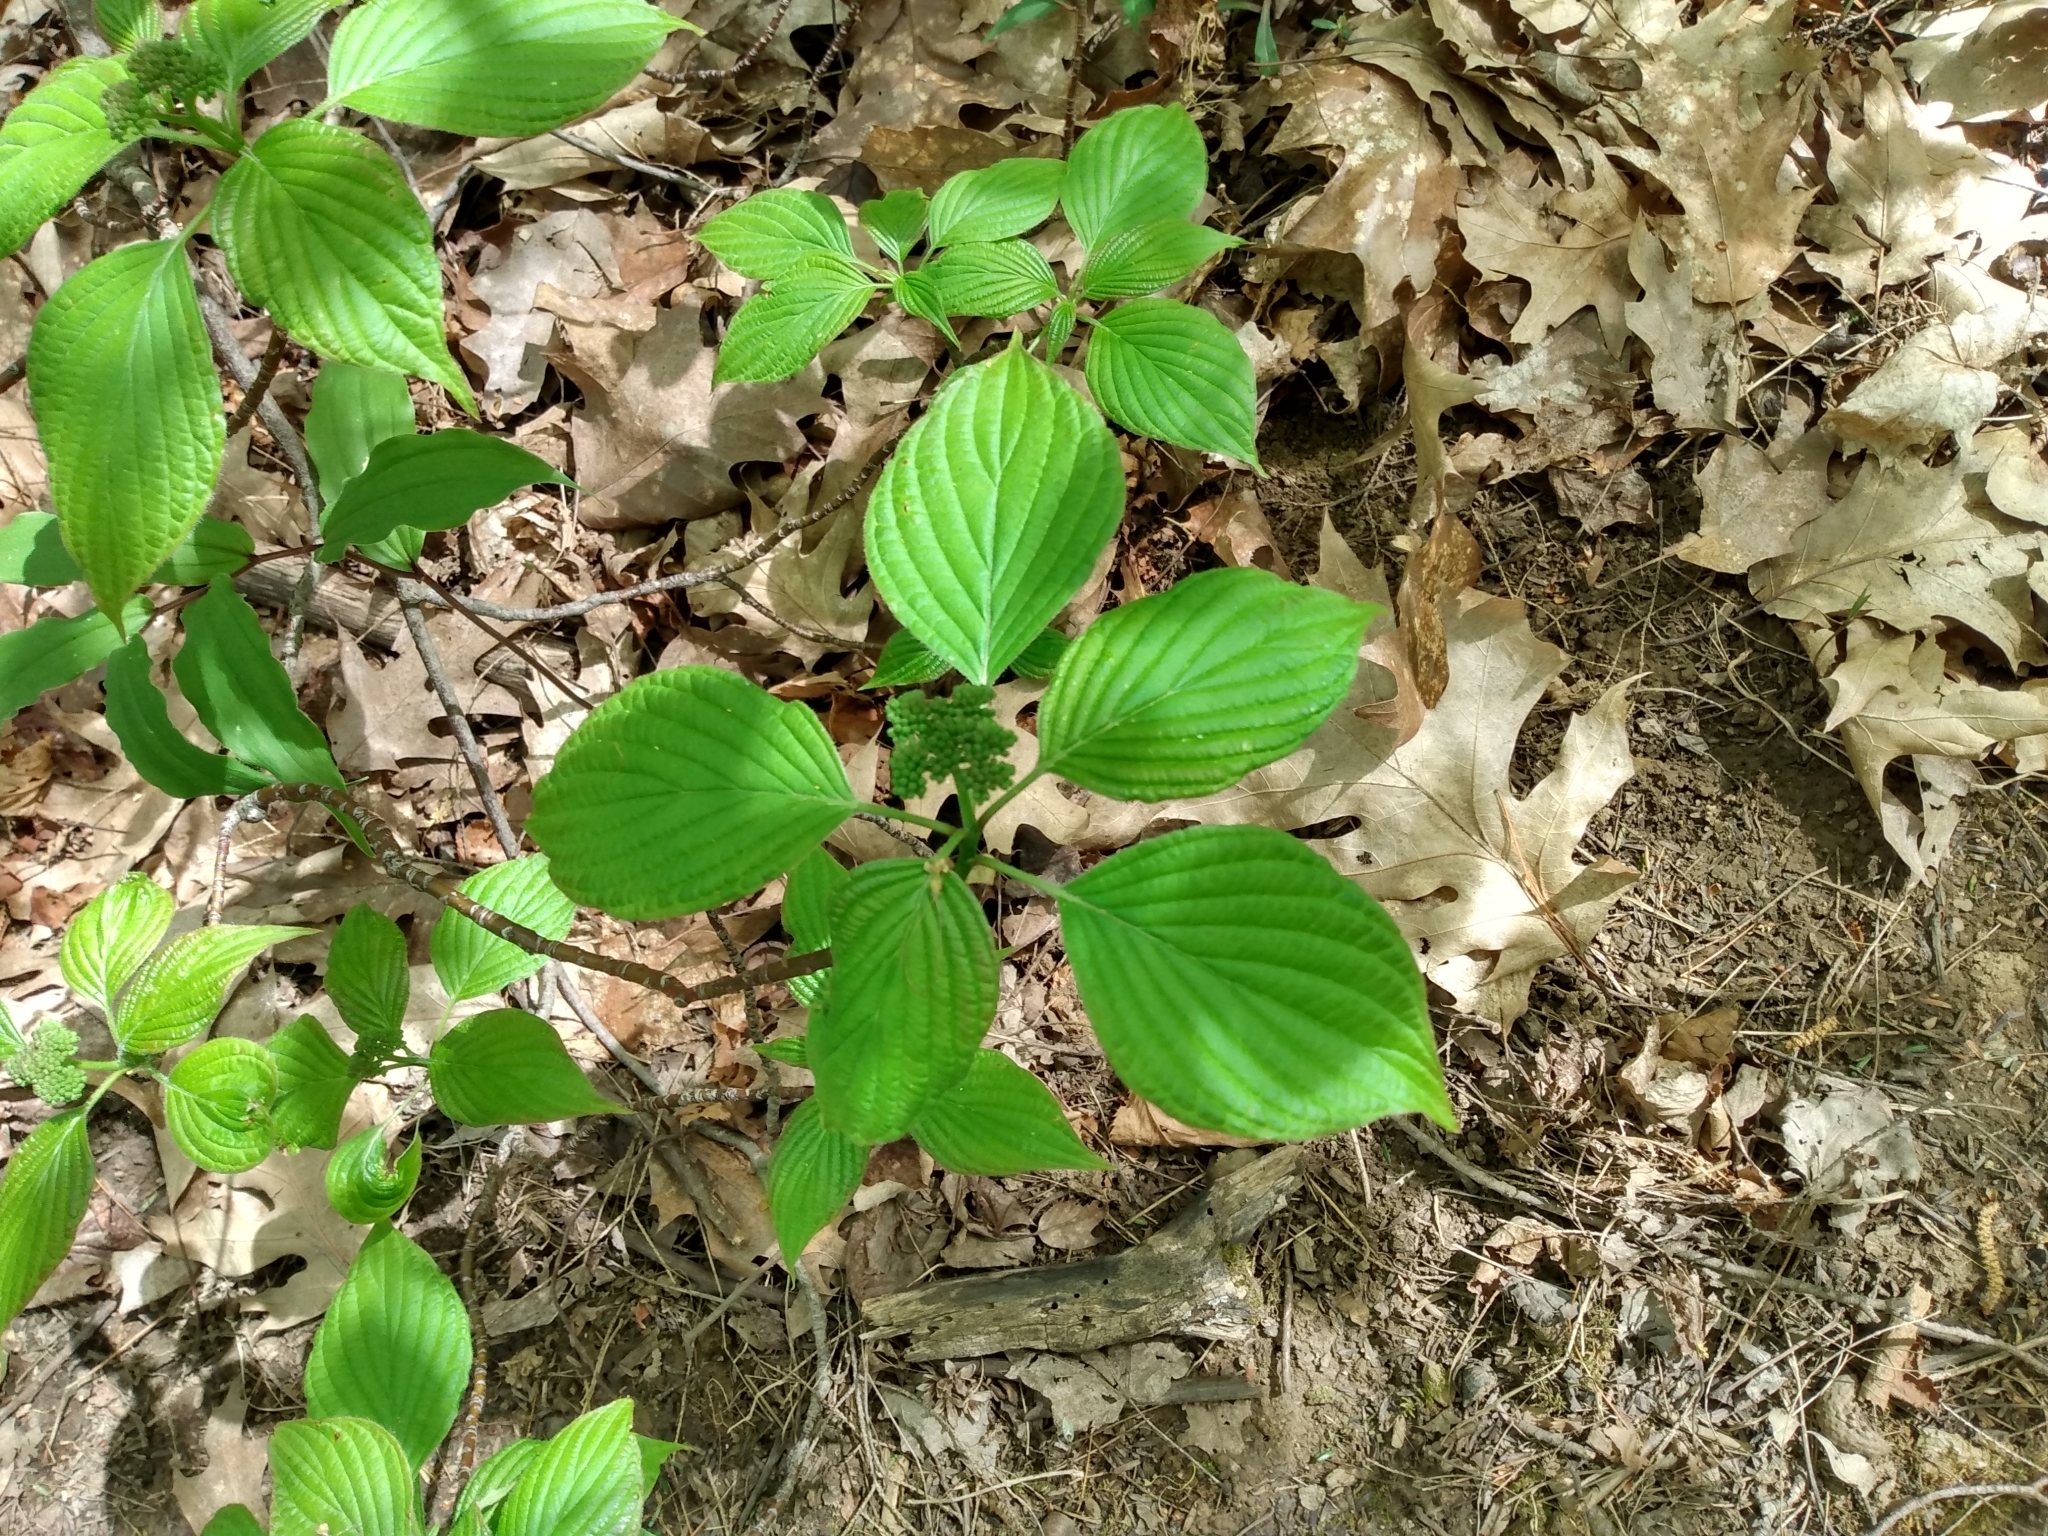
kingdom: Plantae
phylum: Tracheophyta
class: Magnoliopsida
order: Cornales
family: Cornaceae
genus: Cornus
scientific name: Cornus alternifolia
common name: Pagoda dogwood
